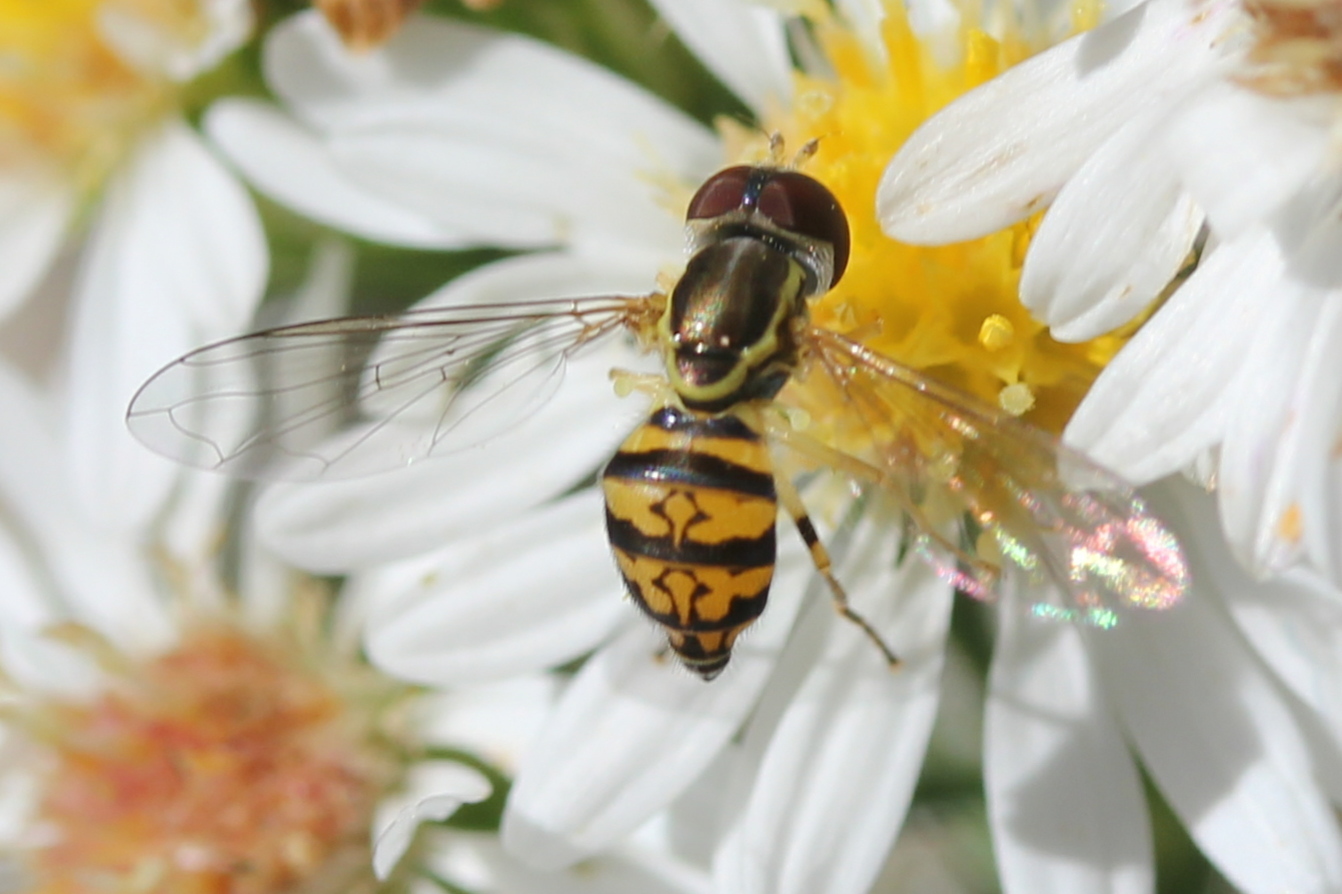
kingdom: Animalia
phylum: Arthropoda
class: Insecta
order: Diptera
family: Syrphidae
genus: Toxomerus
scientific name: Toxomerus geminatus
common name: Eastern calligrapher
